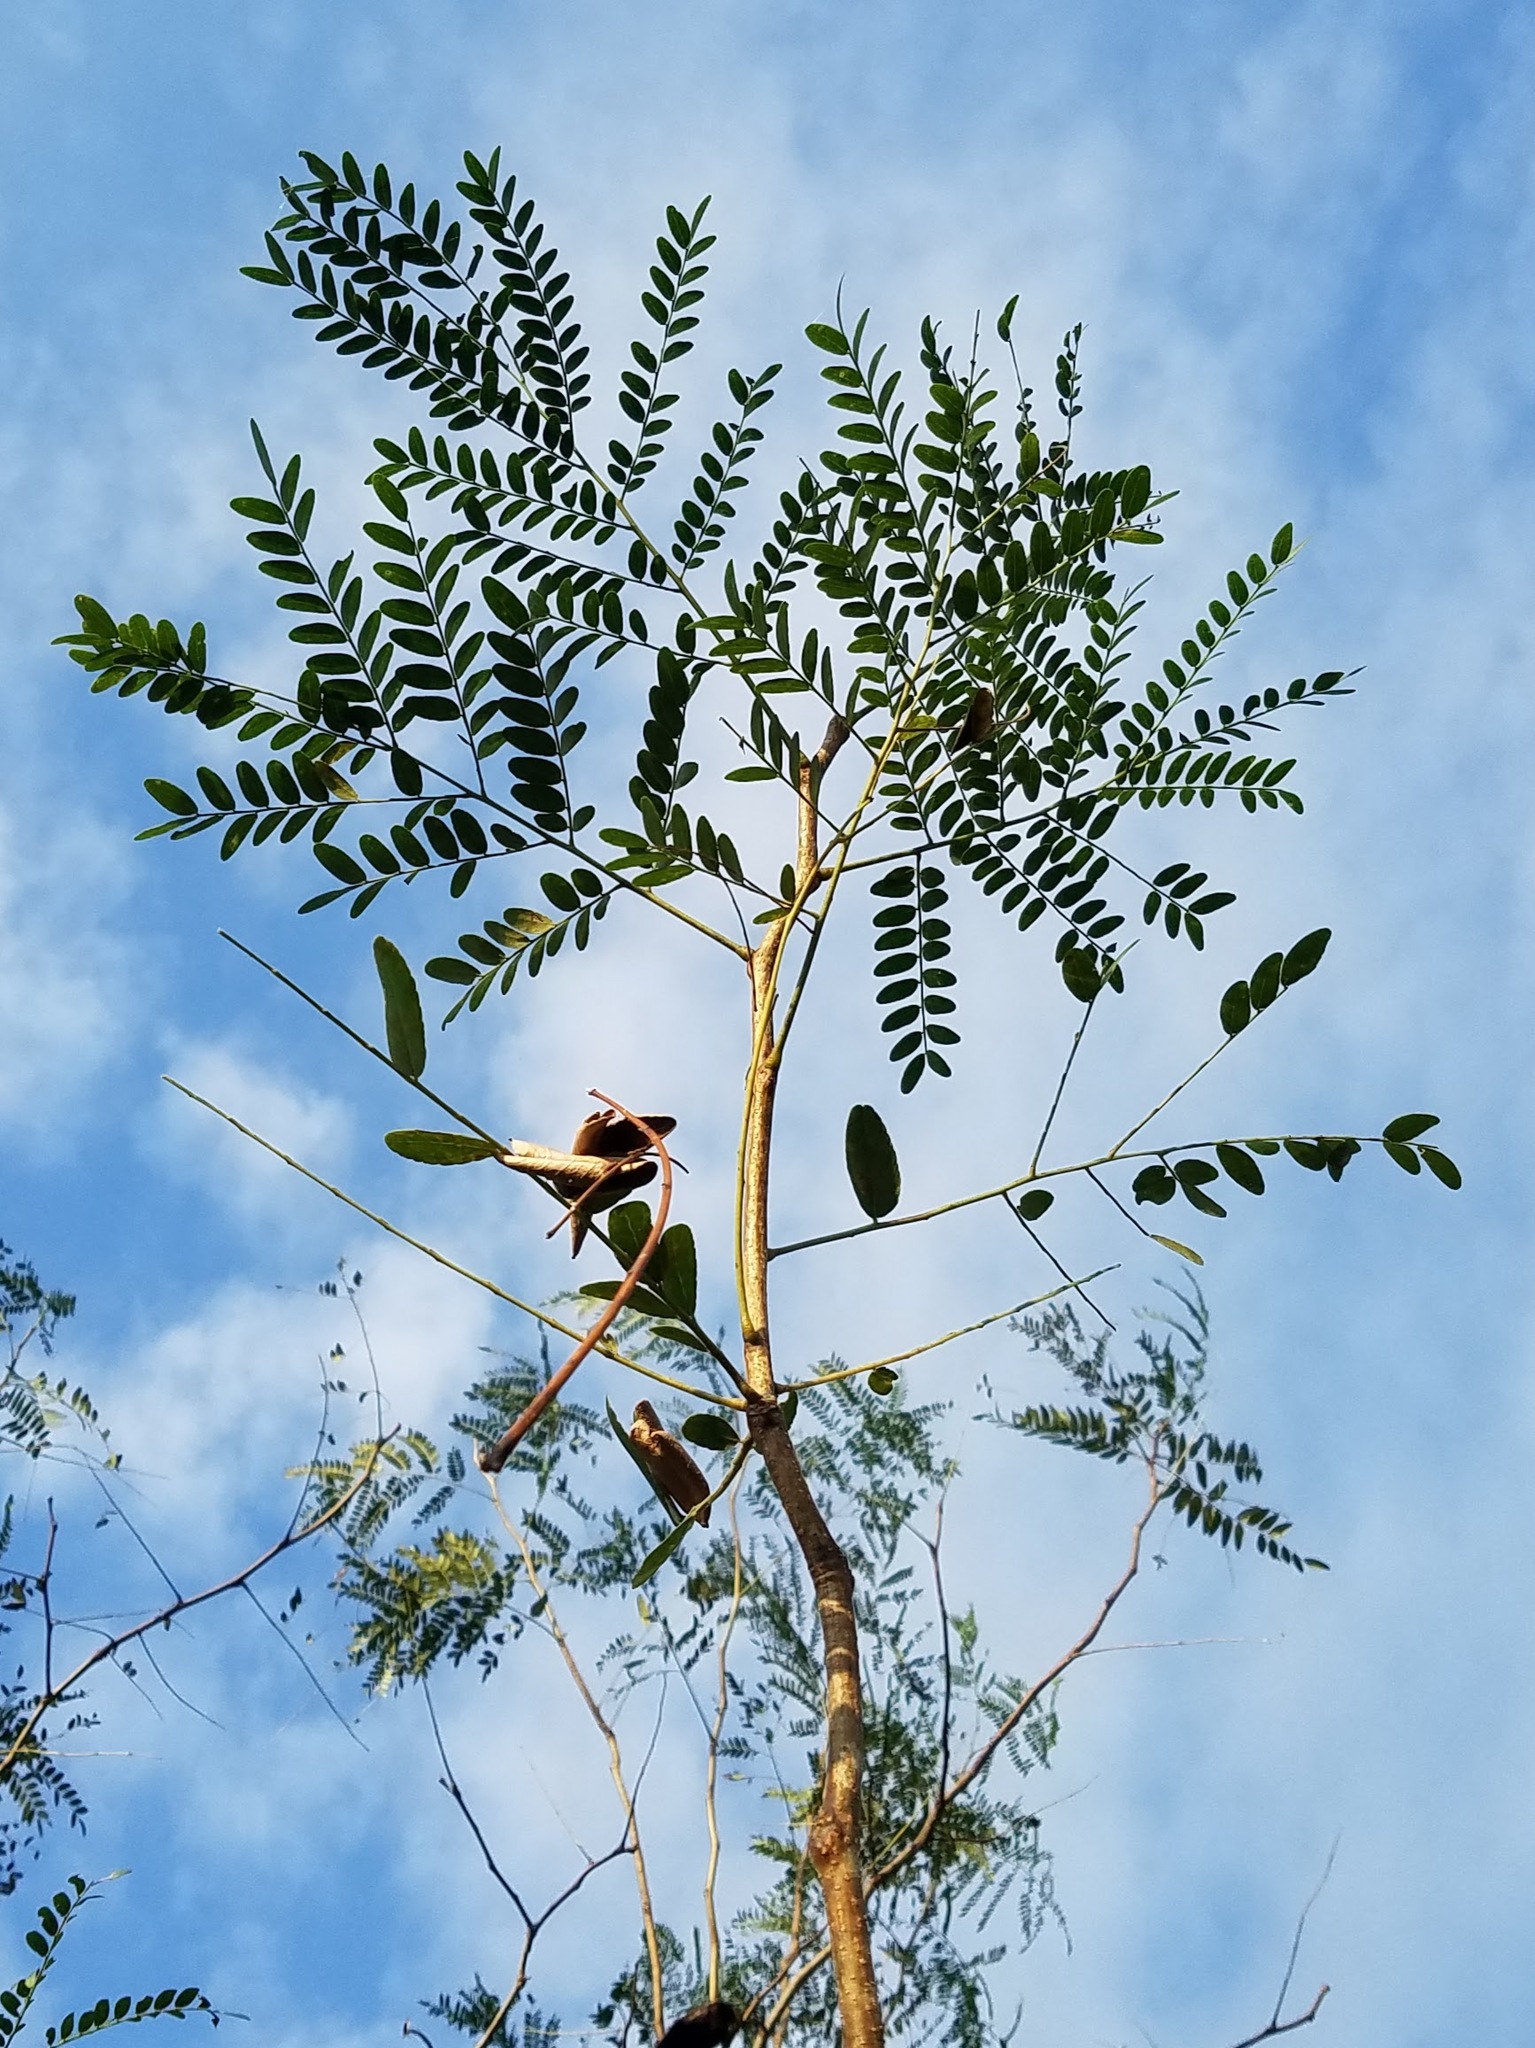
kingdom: Plantae
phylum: Tracheophyta
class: Magnoliopsida
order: Fabales
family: Fabaceae
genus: Gleditsia
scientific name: Gleditsia triacanthos
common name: Common honeylocust
